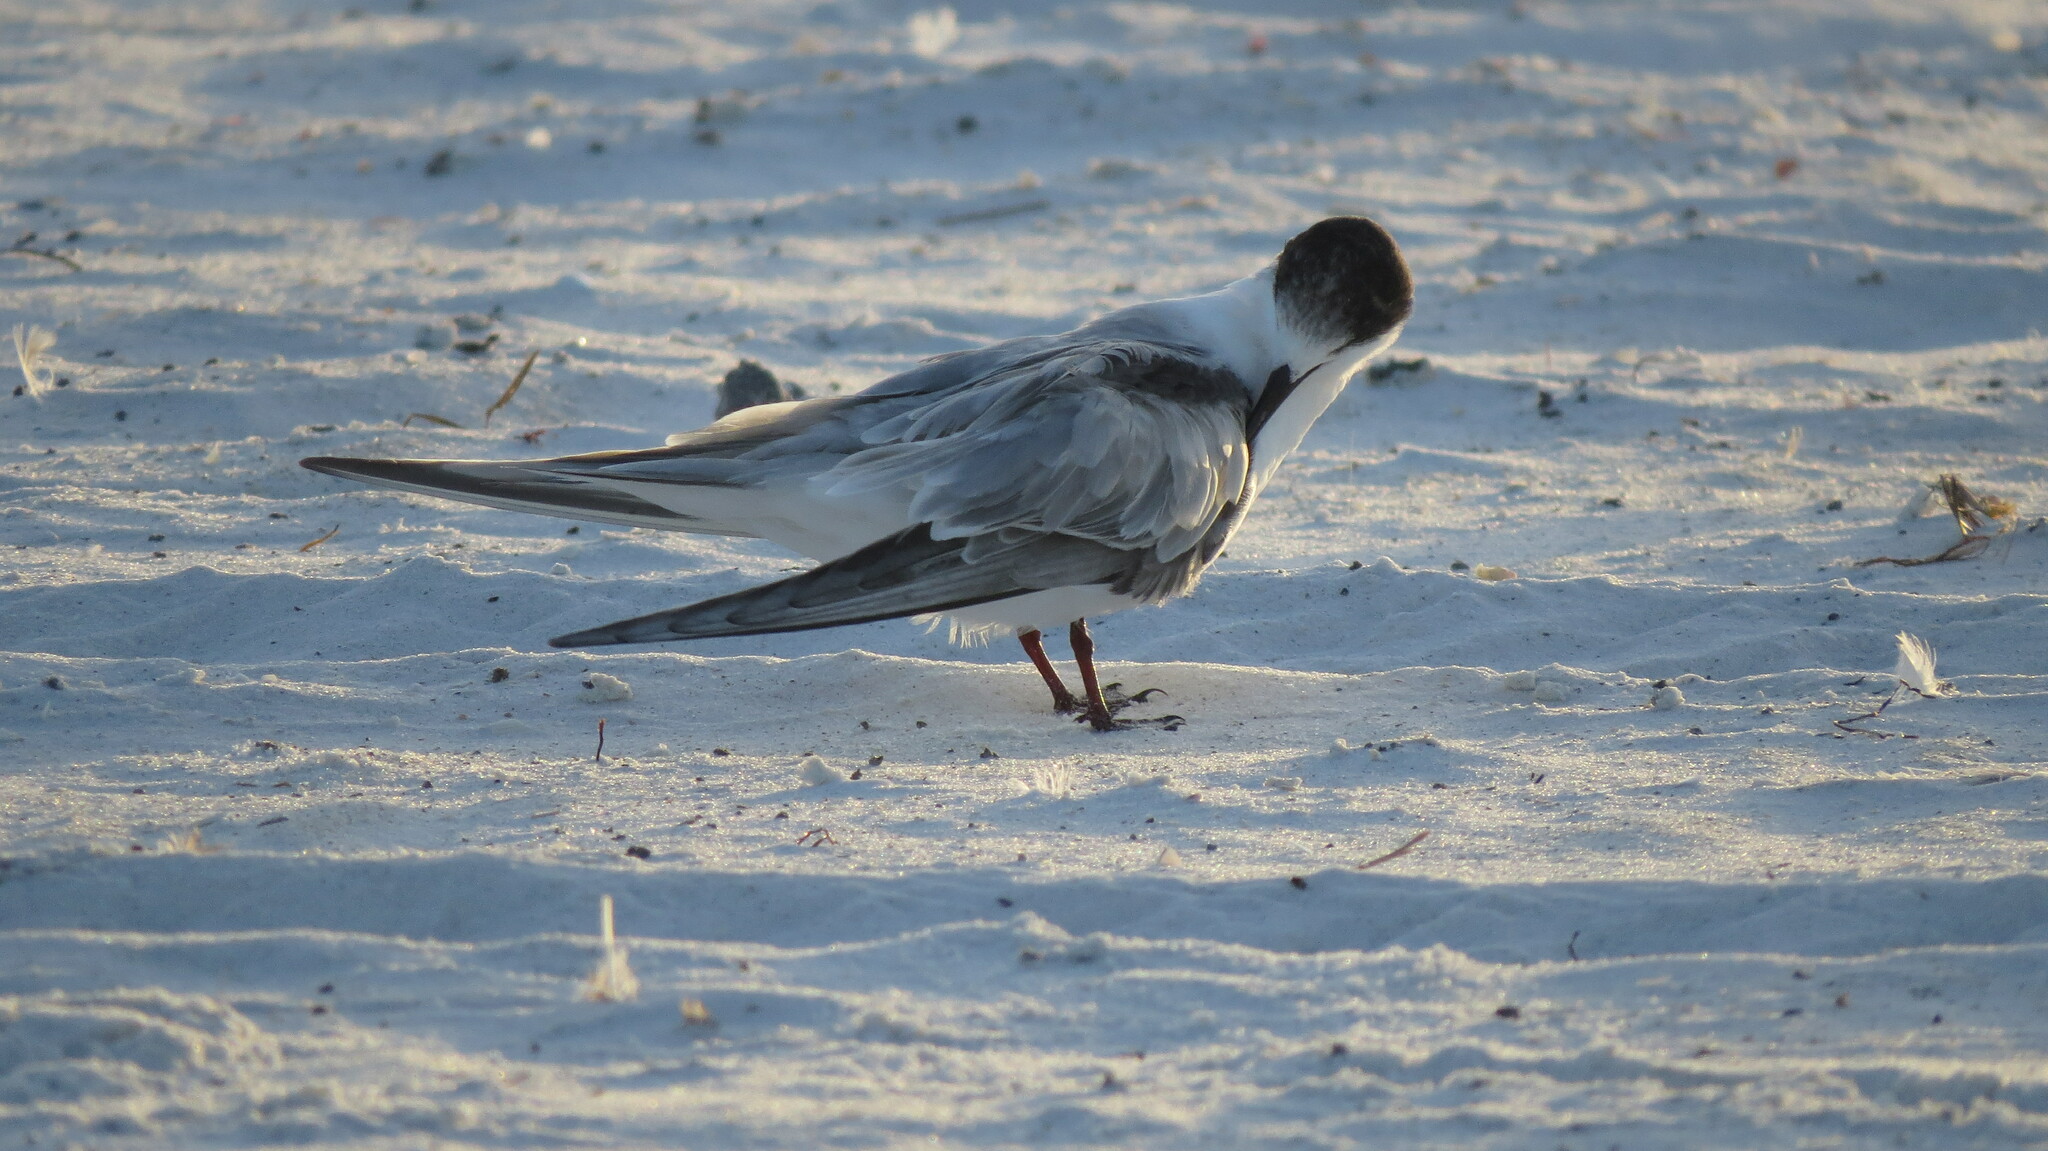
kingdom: Animalia
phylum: Chordata
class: Aves
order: Charadriiformes
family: Laridae
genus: Sterna
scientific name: Sterna hirundo
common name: Common tern
